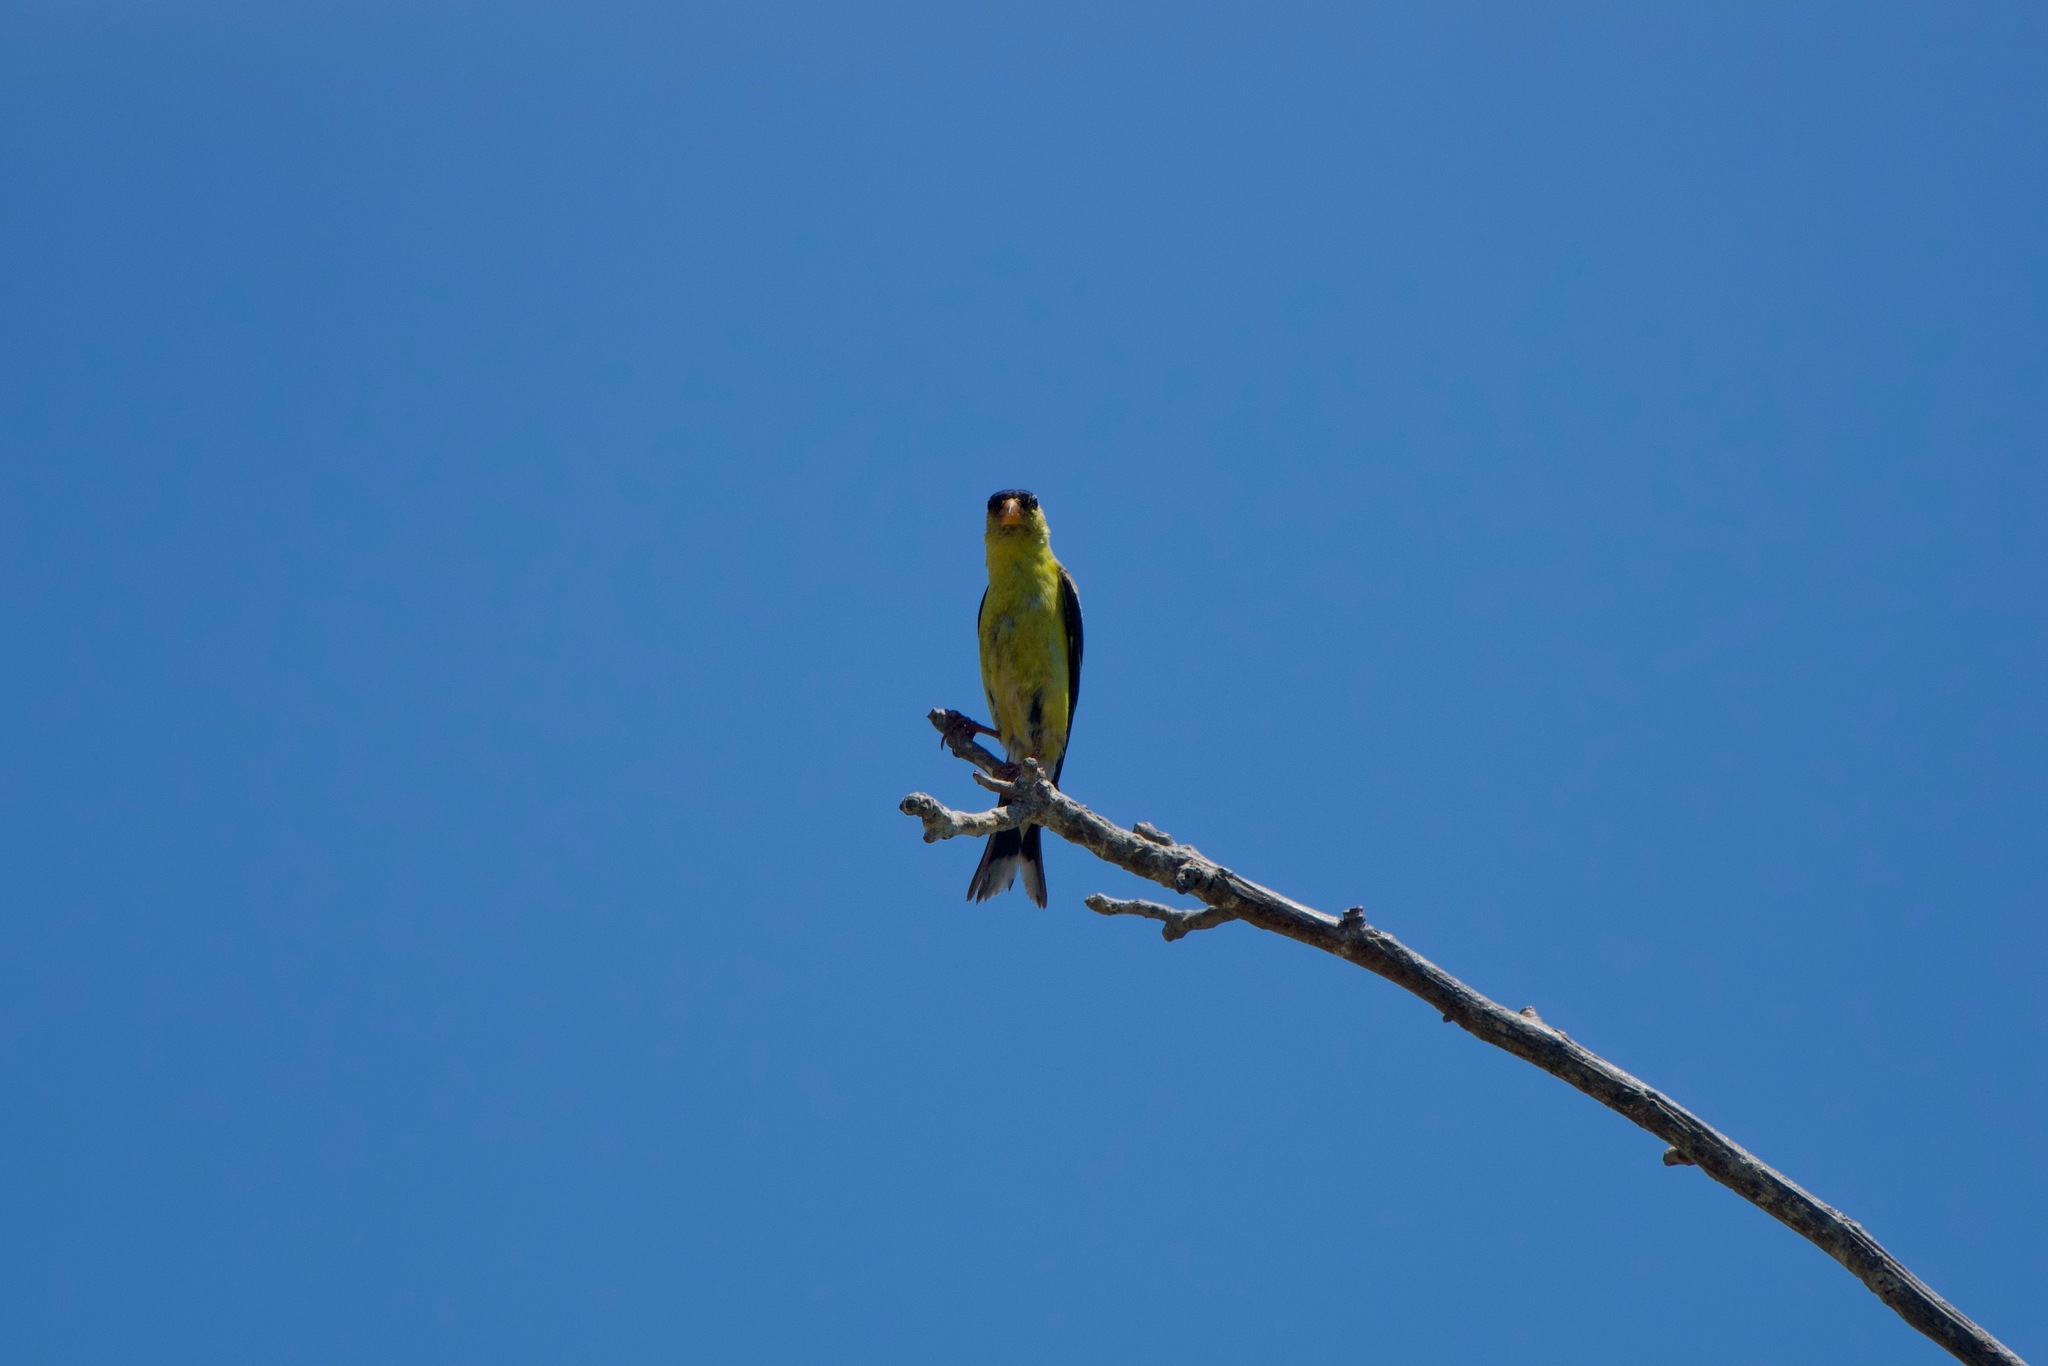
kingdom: Animalia
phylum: Chordata
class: Aves
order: Passeriformes
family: Fringillidae
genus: Spinus
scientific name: Spinus tristis
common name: American goldfinch
